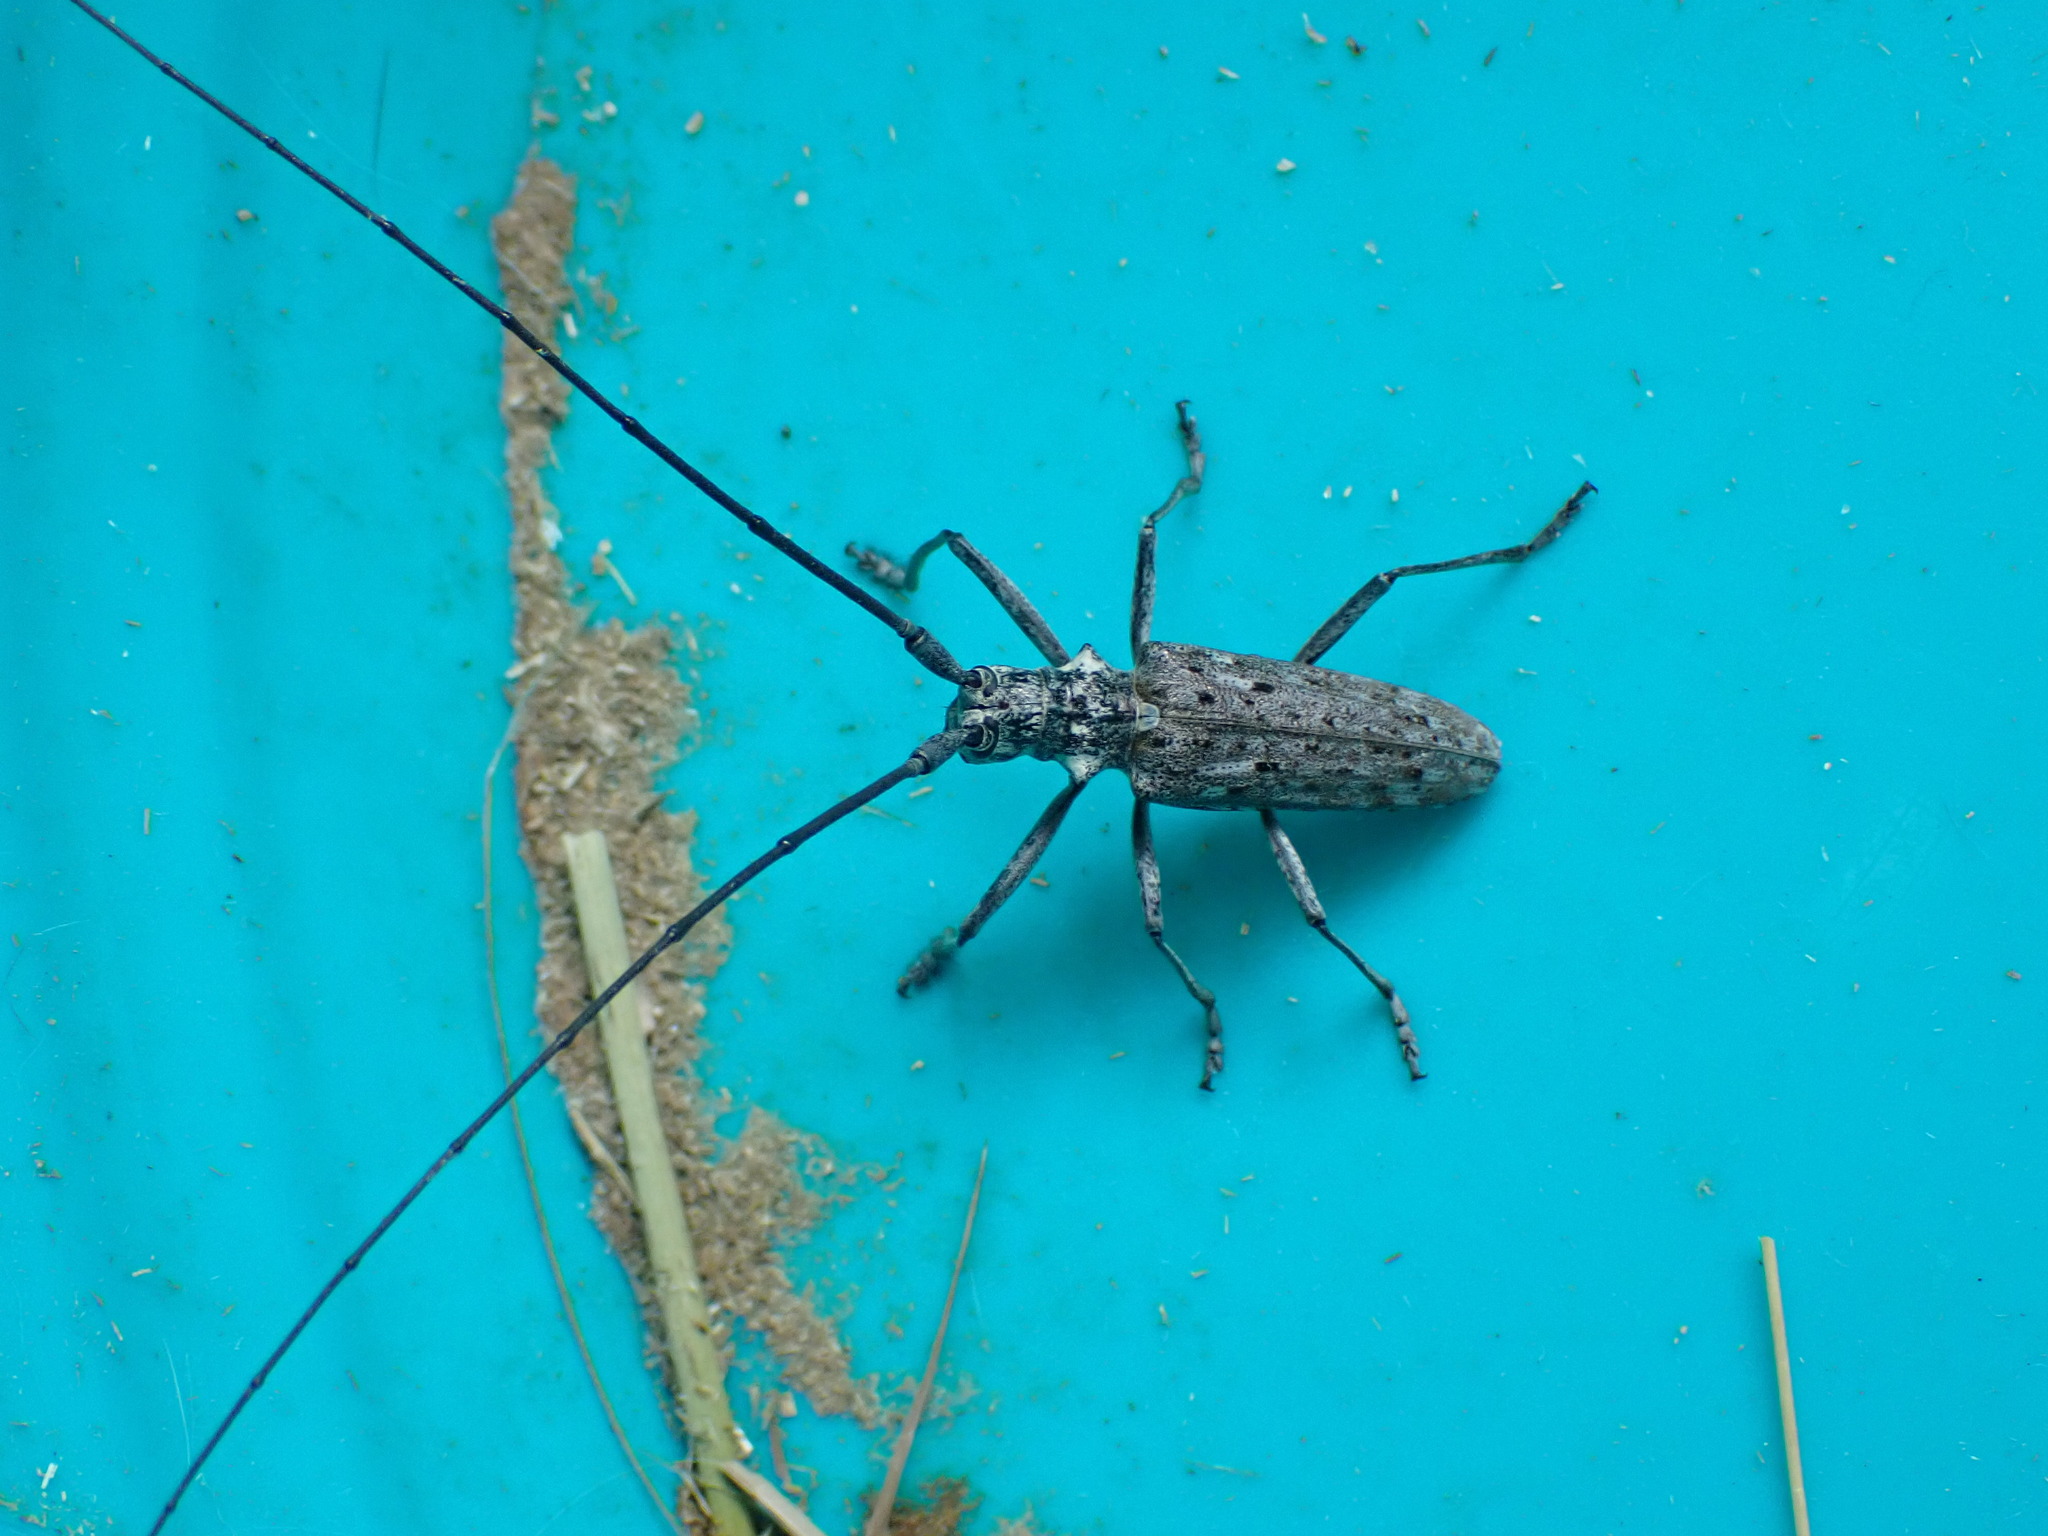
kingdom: Animalia
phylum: Arthropoda
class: Insecta
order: Coleoptera
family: Cerambycidae
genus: Monochamus
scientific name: Monochamus notatus
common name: Northeastern pine sawyer beetle
